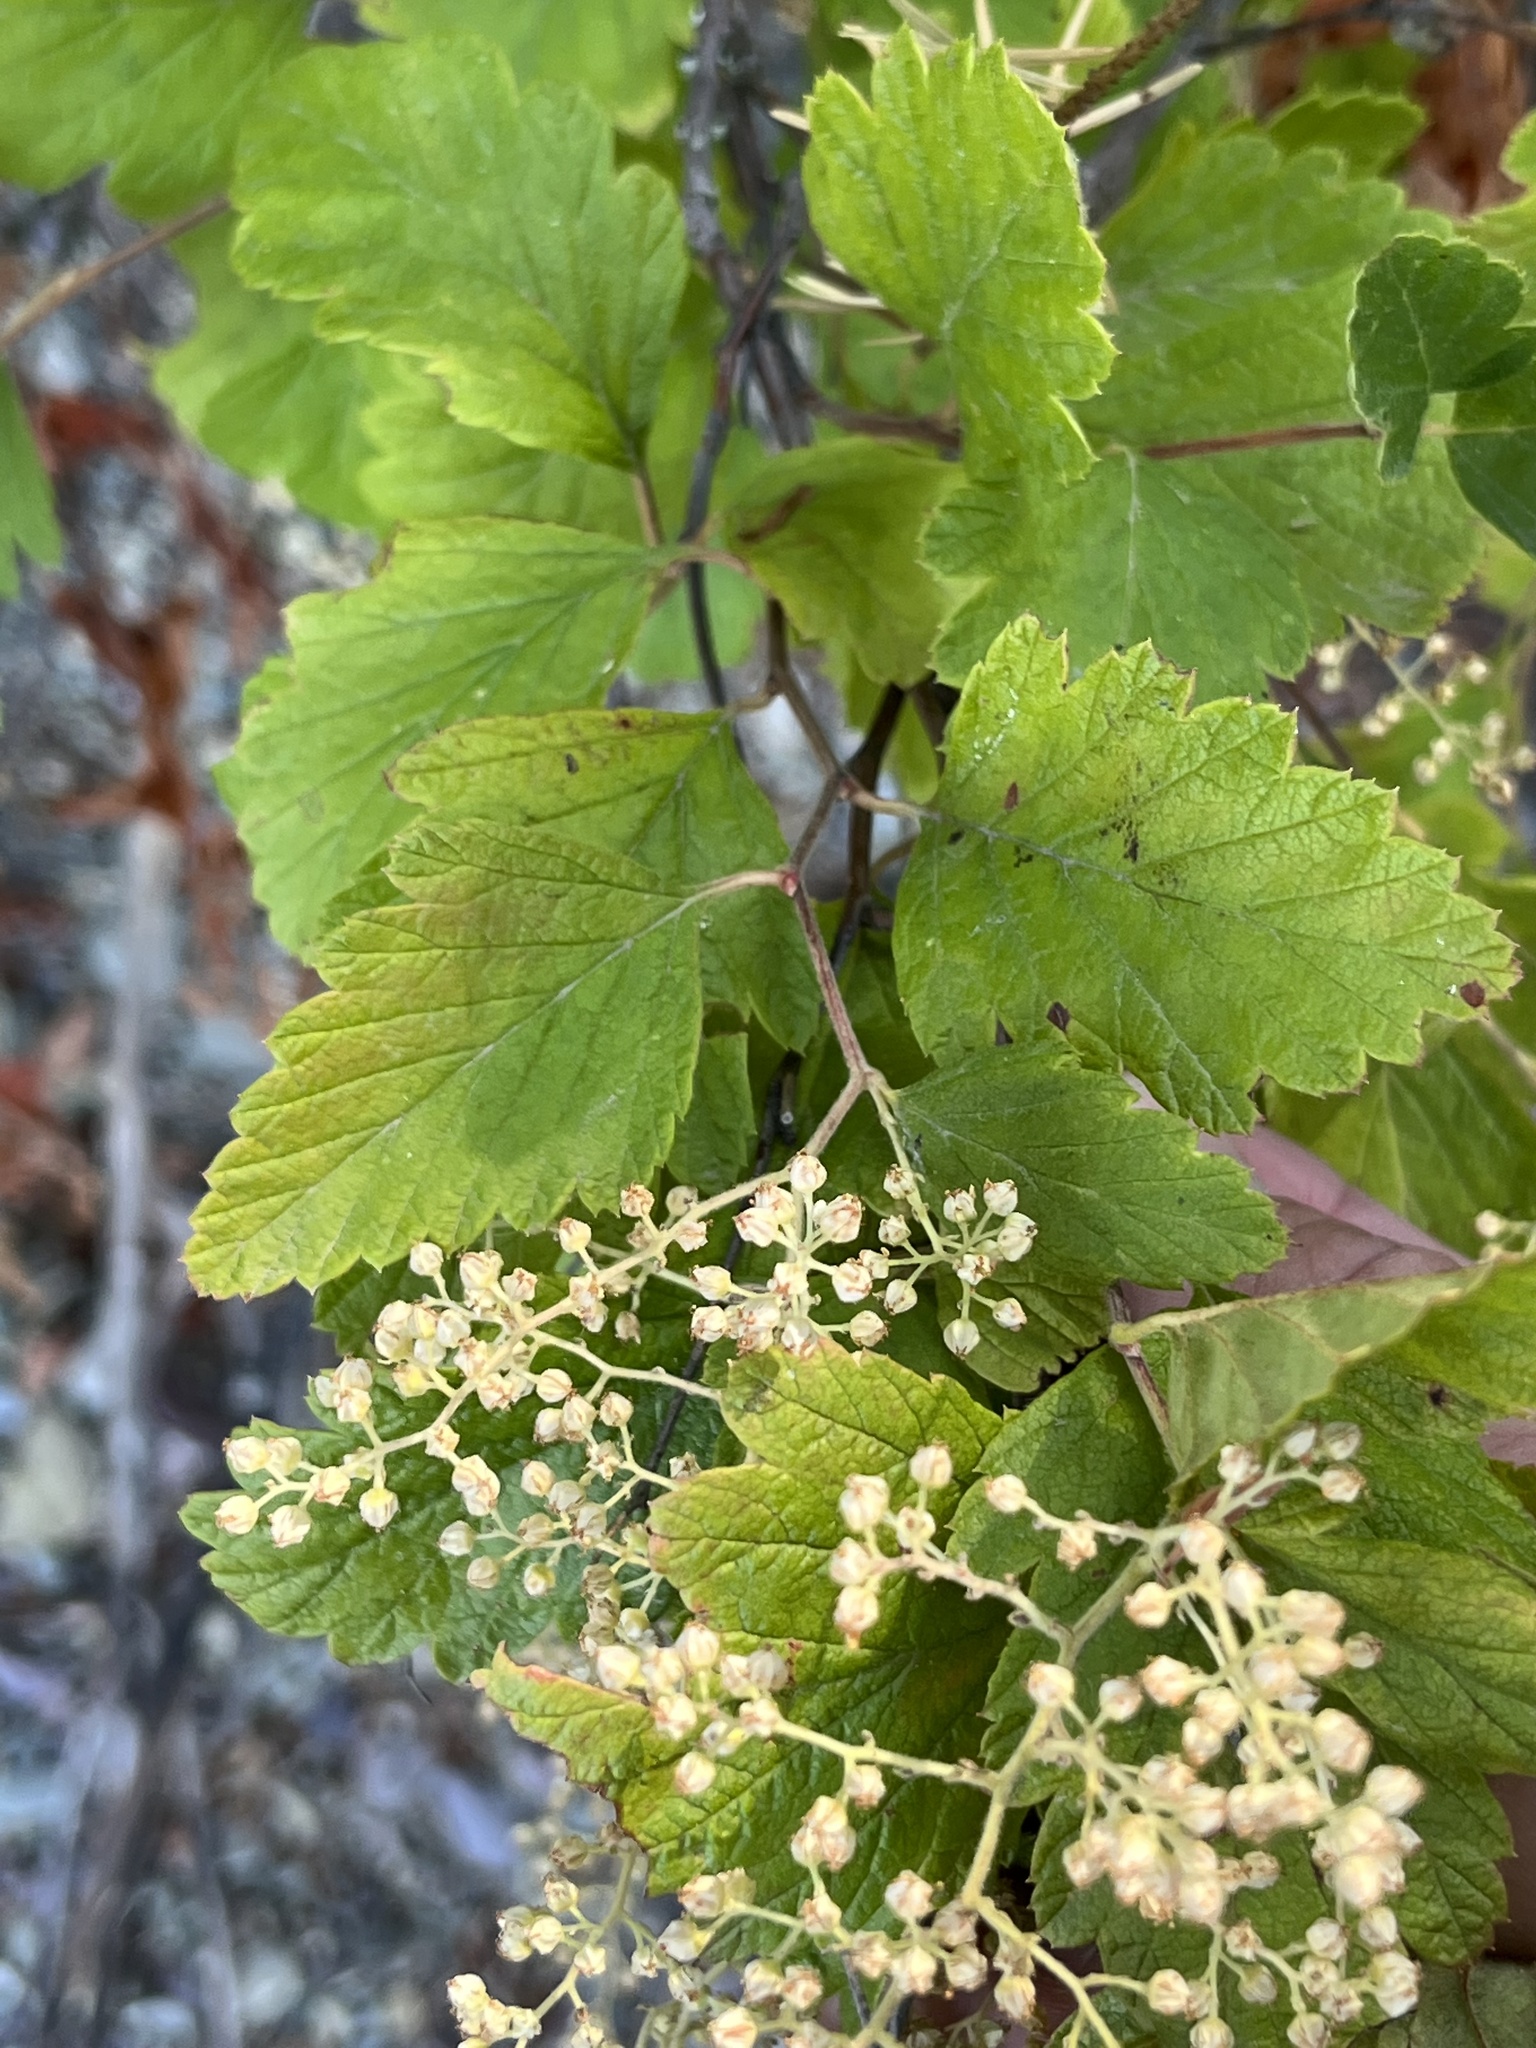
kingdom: Plantae
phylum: Tracheophyta
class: Magnoliopsida
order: Rosales
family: Rosaceae
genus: Holodiscus
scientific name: Holodiscus discolor
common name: Oceanspray
